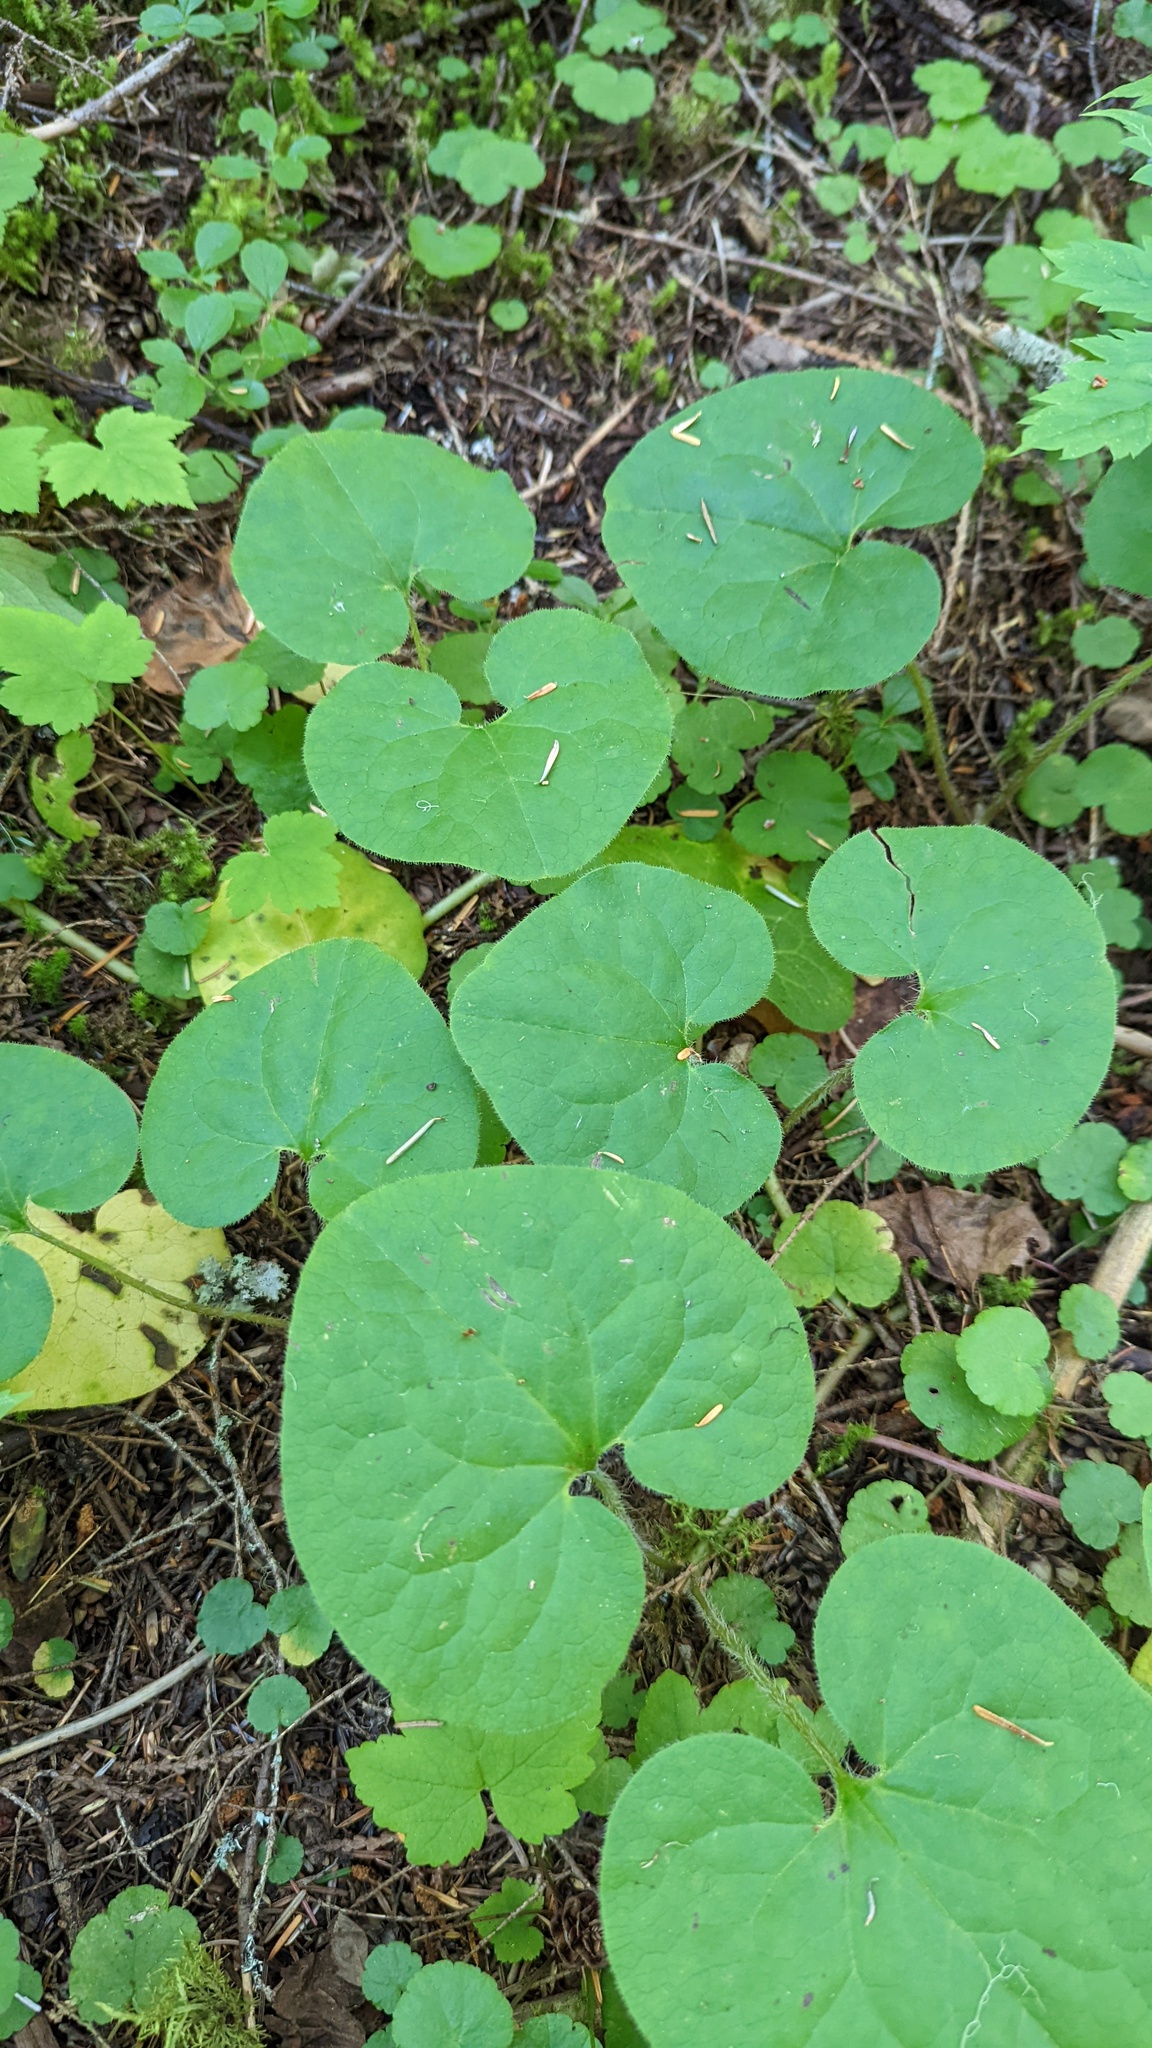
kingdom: Plantae
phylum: Tracheophyta
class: Magnoliopsida
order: Piperales
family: Aristolochiaceae
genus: Asarum
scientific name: Asarum caudatum
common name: Wild ginger
